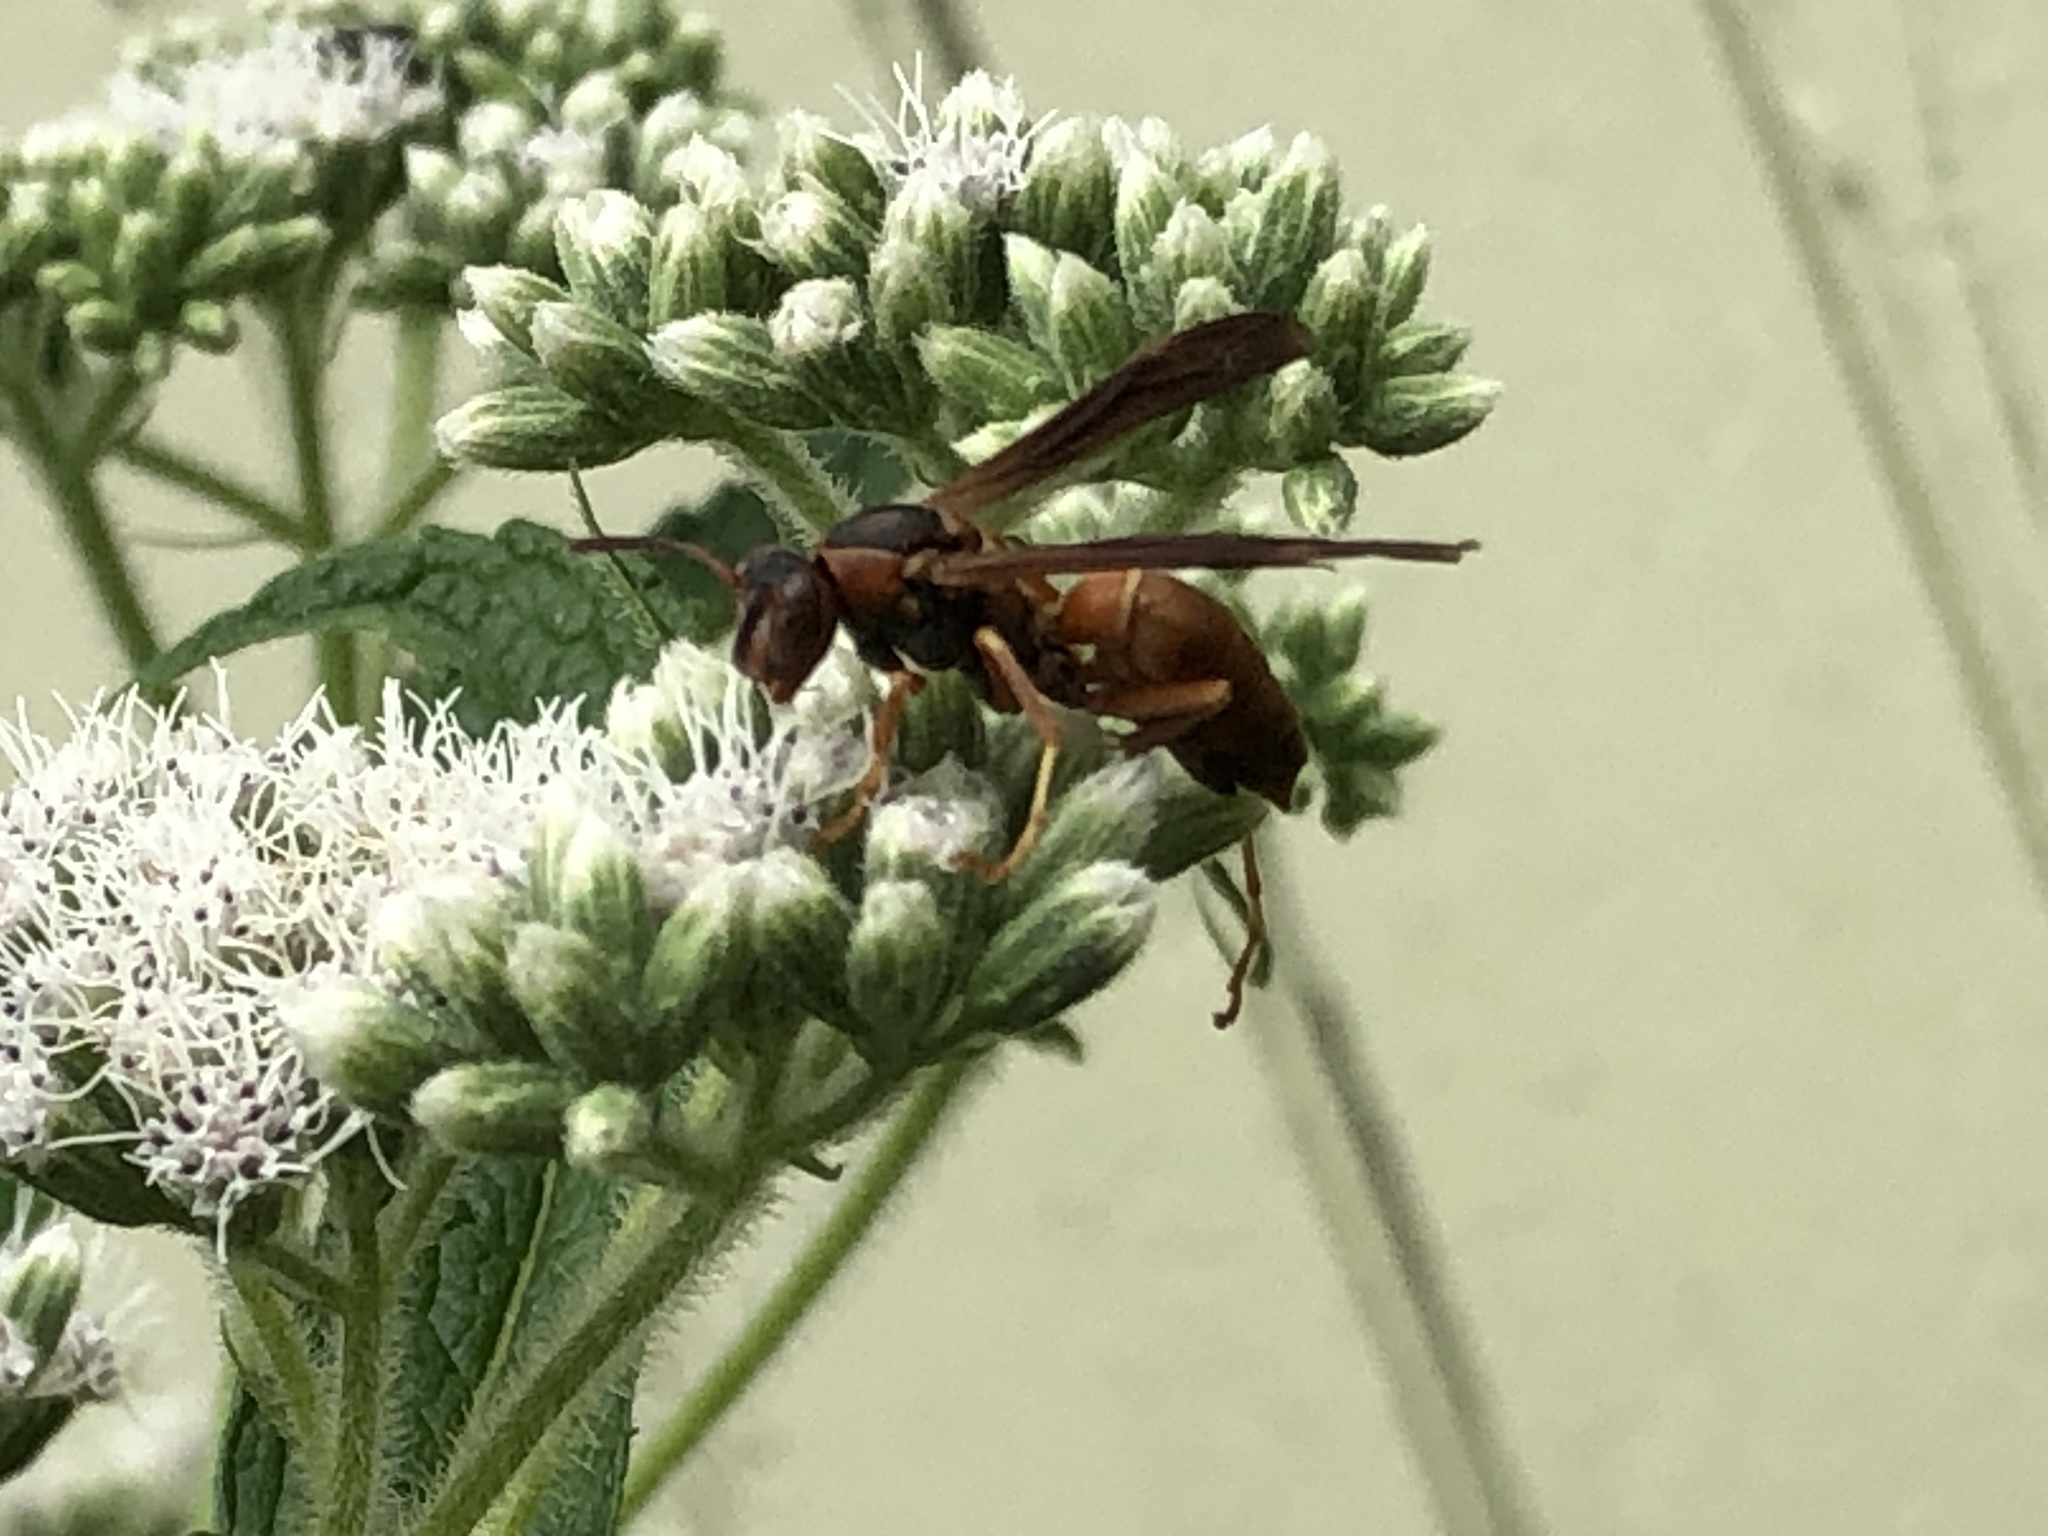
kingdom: Animalia
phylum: Arthropoda
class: Insecta
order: Hymenoptera
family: Eumenidae
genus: Polistes
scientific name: Polistes carolina
